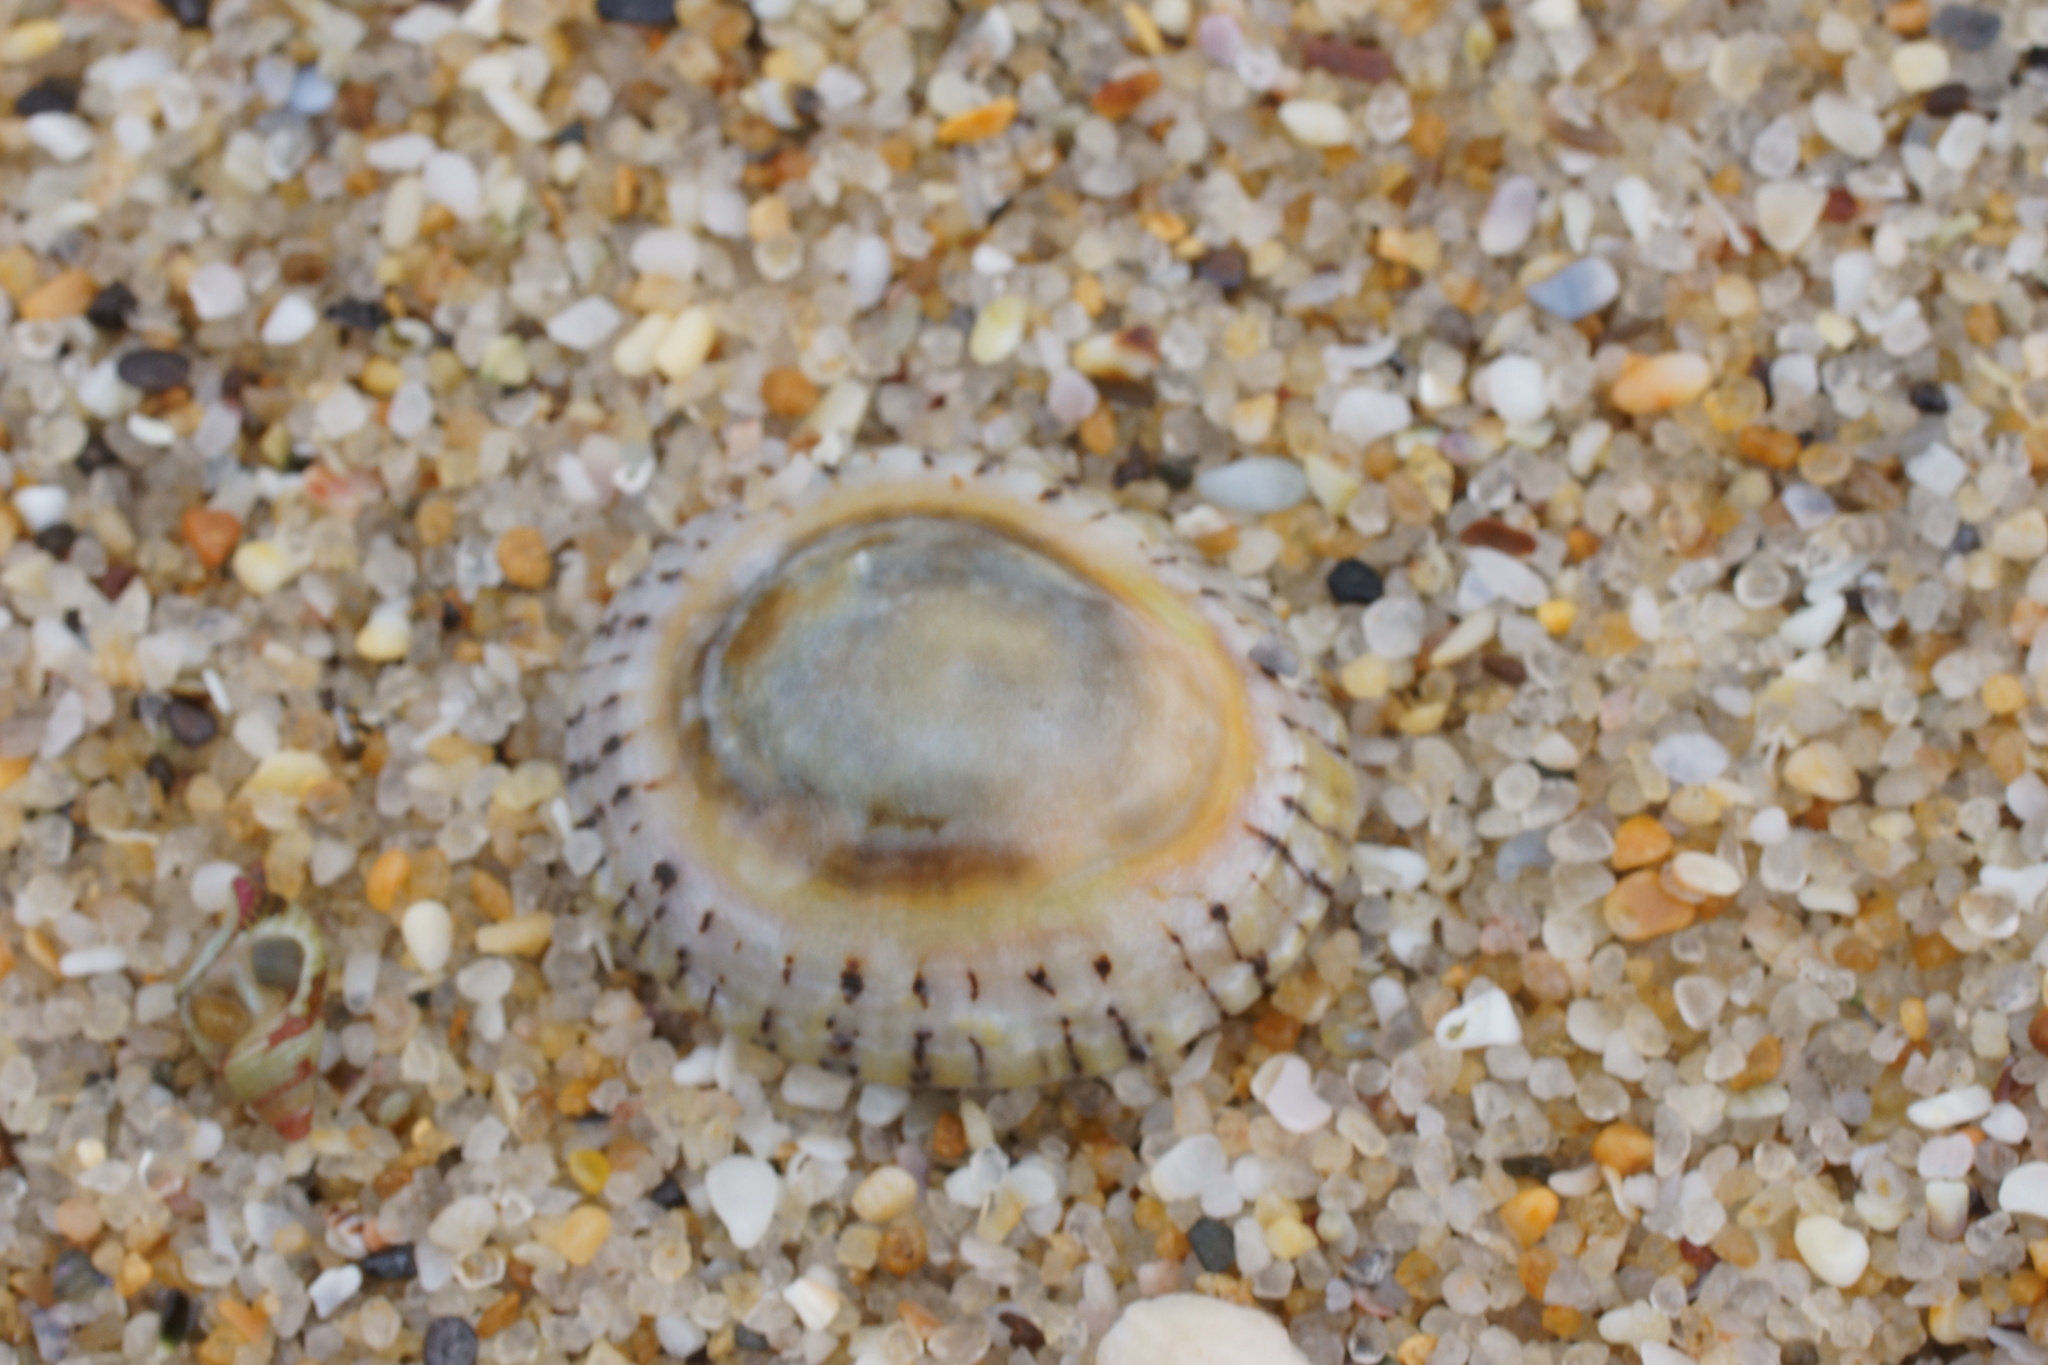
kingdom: Animalia
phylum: Mollusca
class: Gastropoda
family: Nacellidae
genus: Cellana
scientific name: Cellana tramoserica
